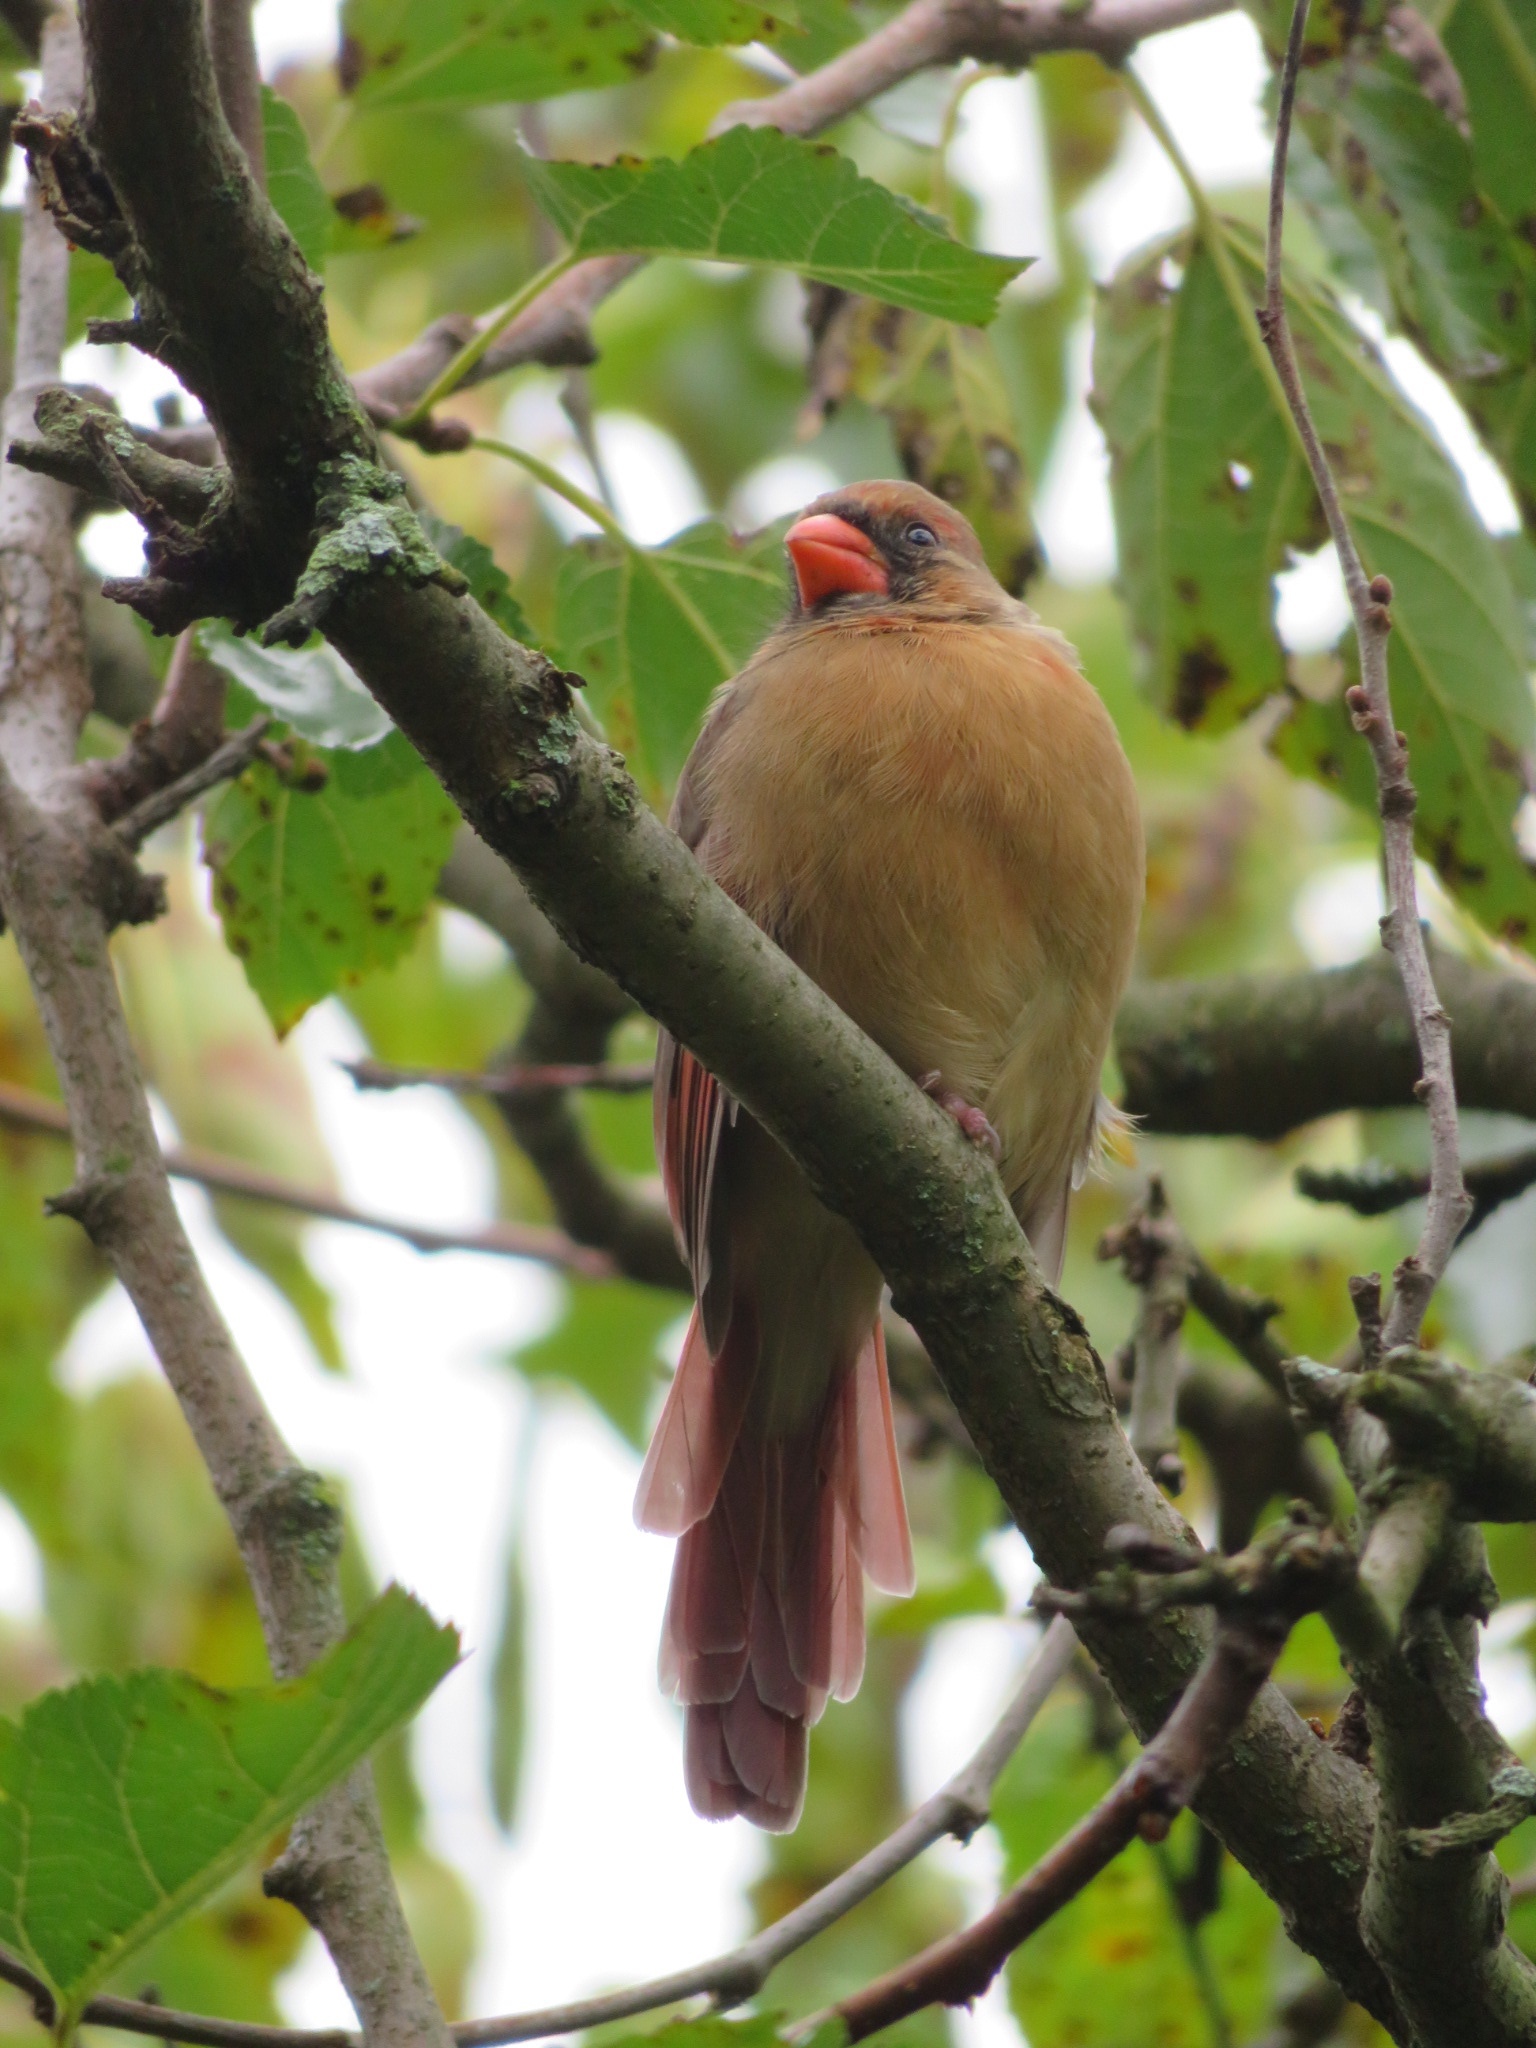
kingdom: Animalia
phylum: Chordata
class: Aves
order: Passeriformes
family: Cardinalidae
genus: Cardinalis
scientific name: Cardinalis cardinalis
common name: Northern cardinal
